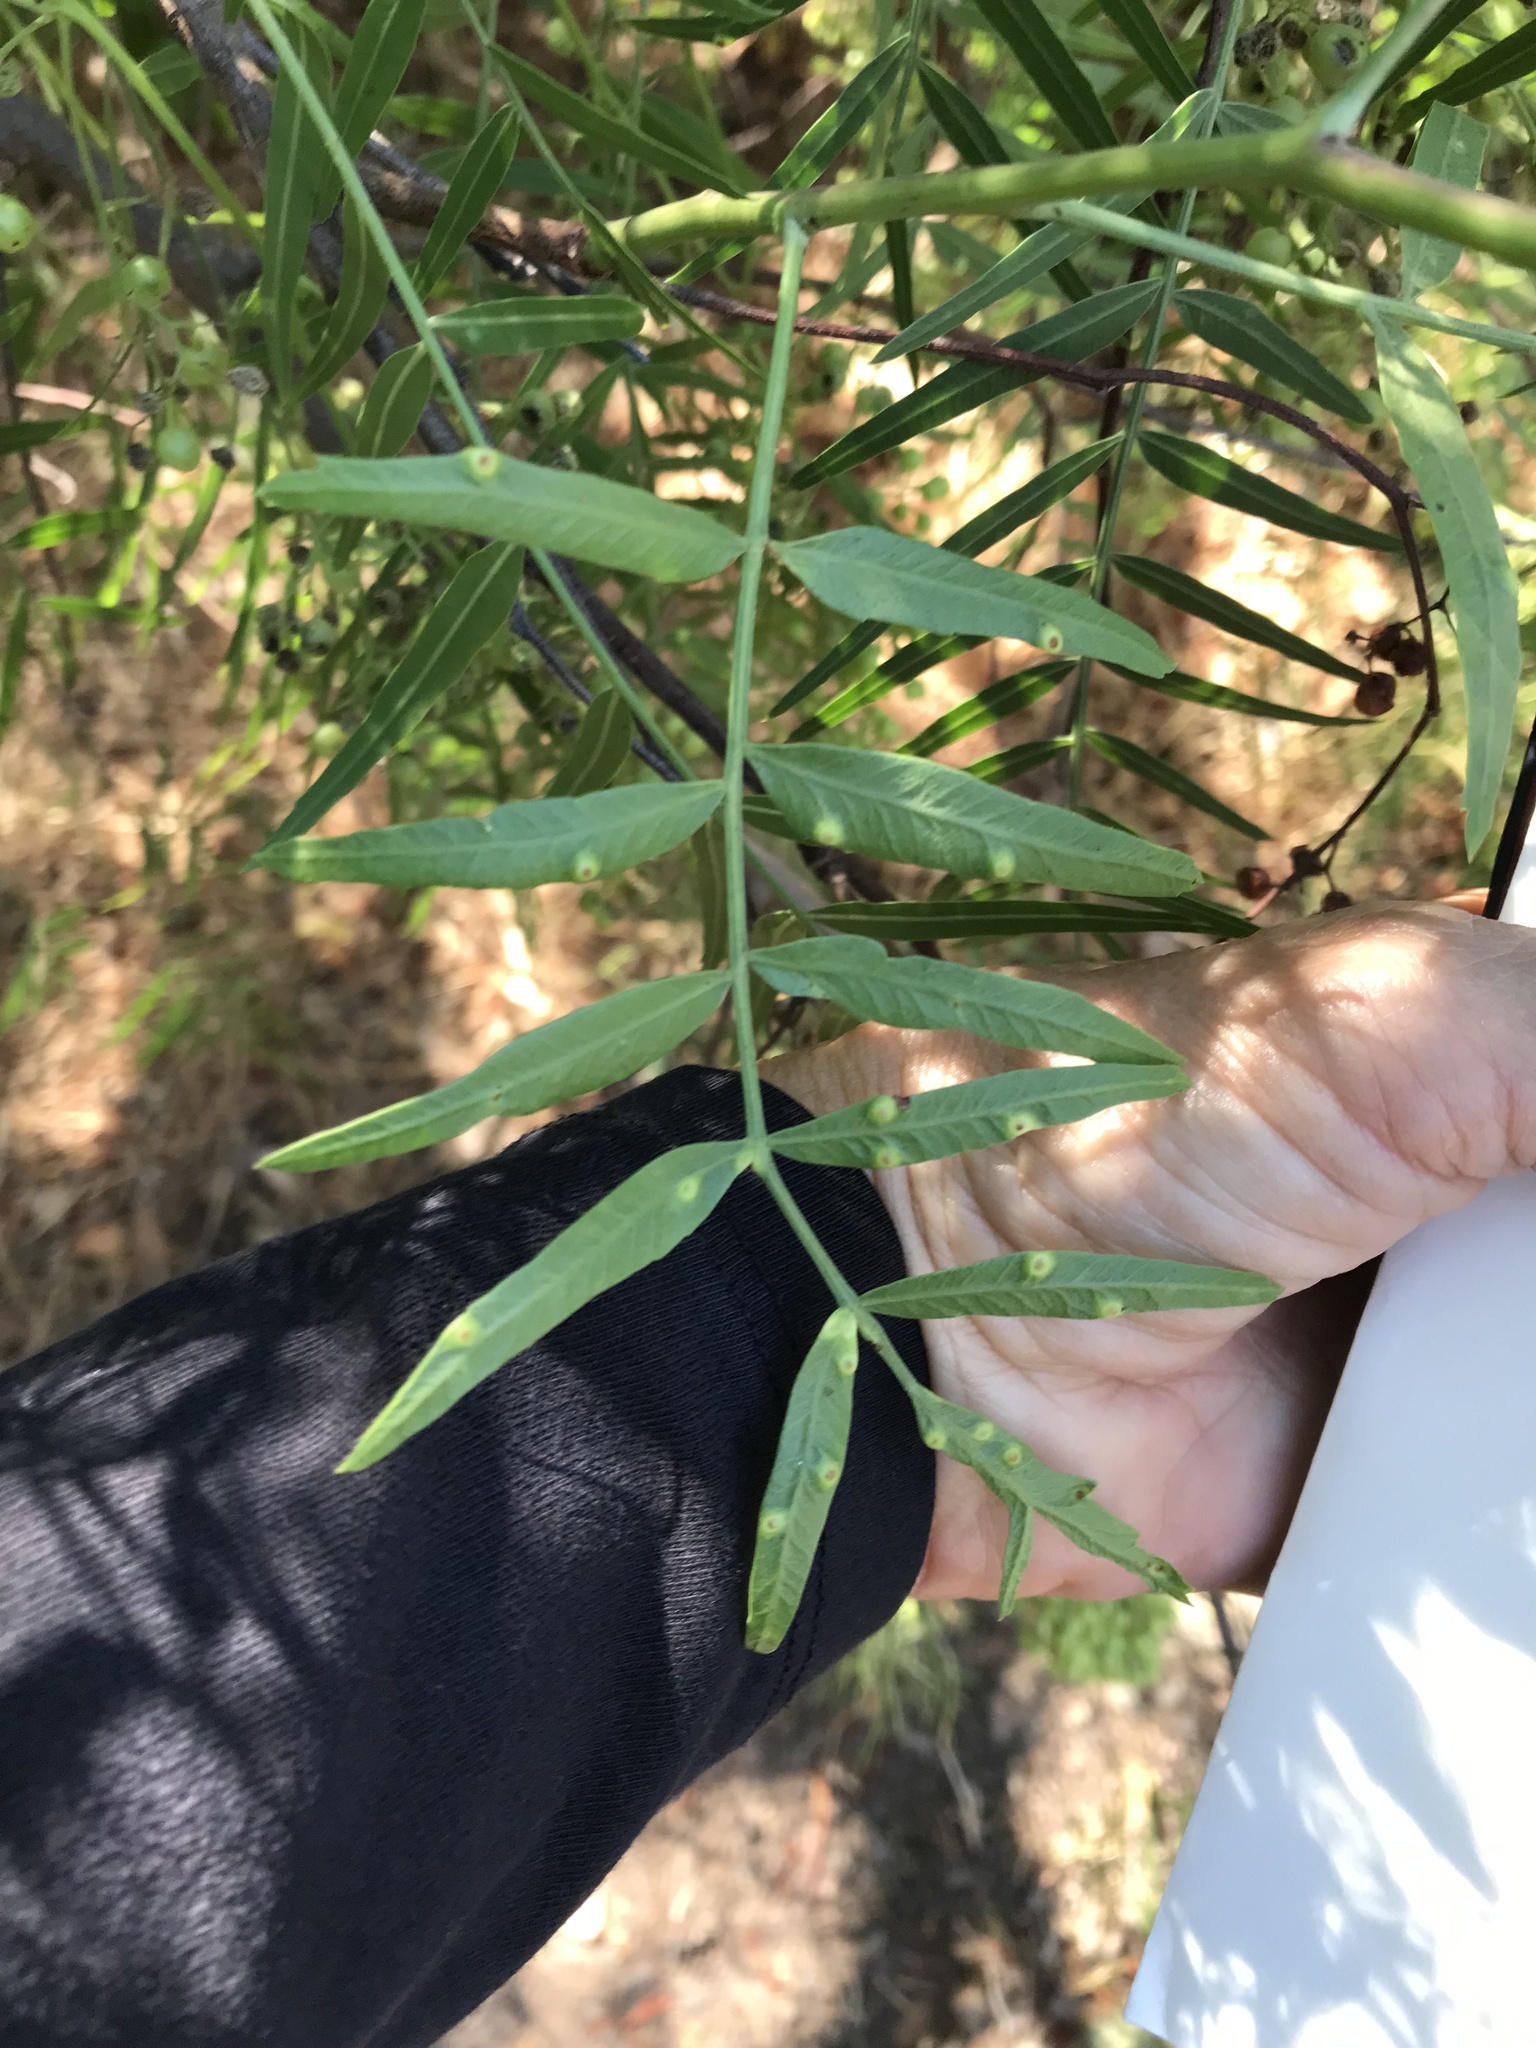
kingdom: Animalia
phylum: Arthropoda
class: Insecta
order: Hemiptera
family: Calophyidae
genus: Calophya
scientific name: Calophya schini
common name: Pepper tree psyllid
